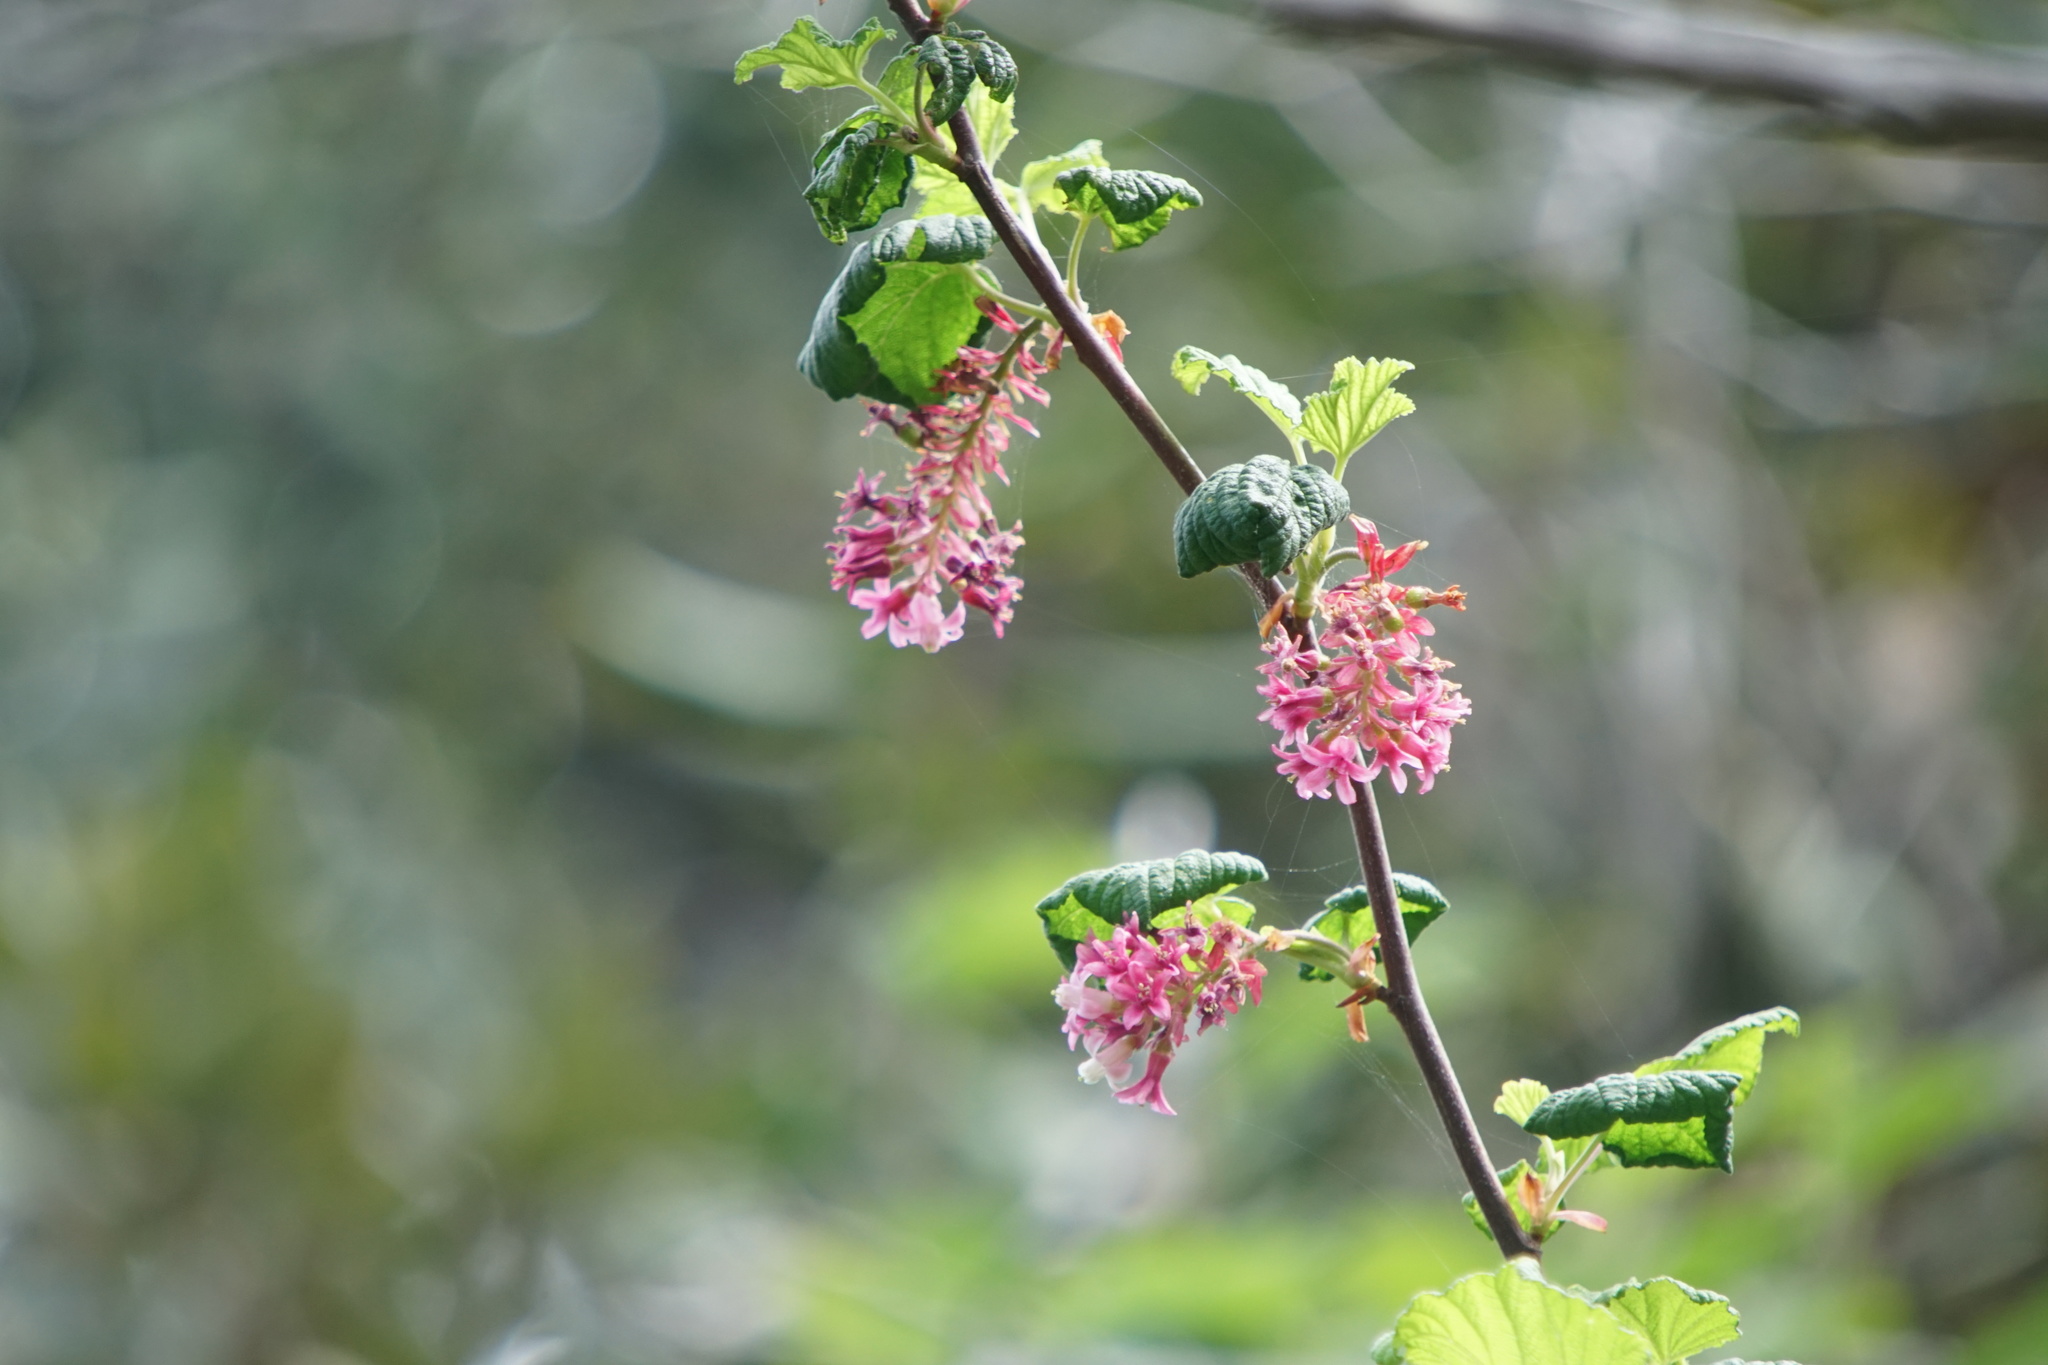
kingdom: Plantae
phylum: Tracheophyta
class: Magnoliopsida
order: Saxifragales
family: Grossulariaceae
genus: Ribes
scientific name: Ribes sanguineum
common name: Flowering currant
